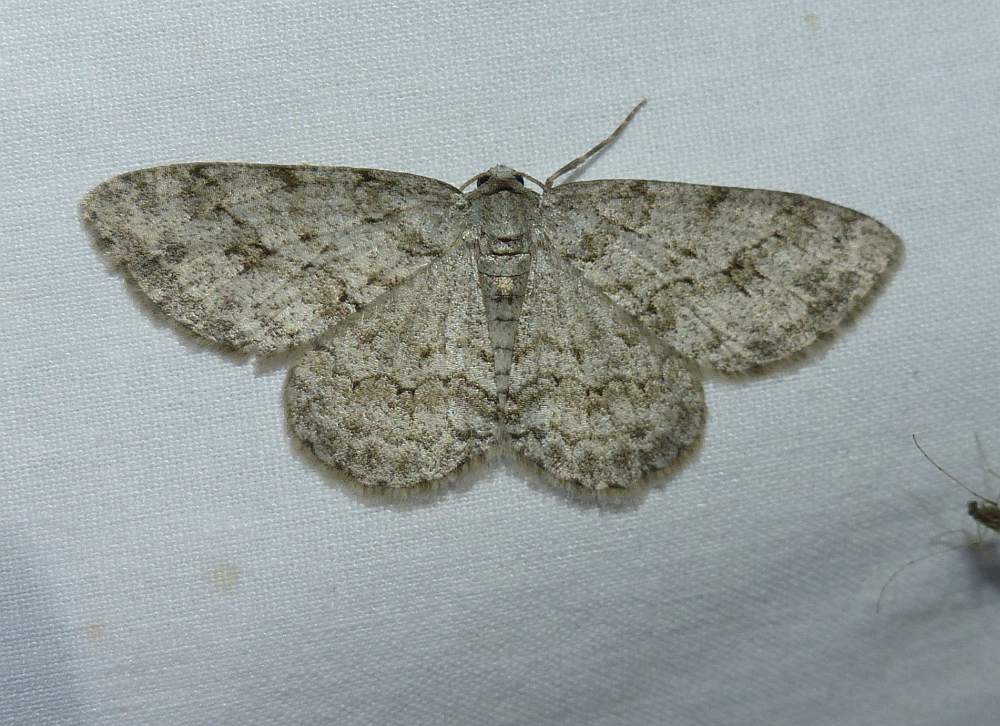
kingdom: Animalia
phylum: Arthropoda
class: Insecta
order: Lepidoptera
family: Geometridae
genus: Ectropis
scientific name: Ectropis crepuscularia
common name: Engrailed
